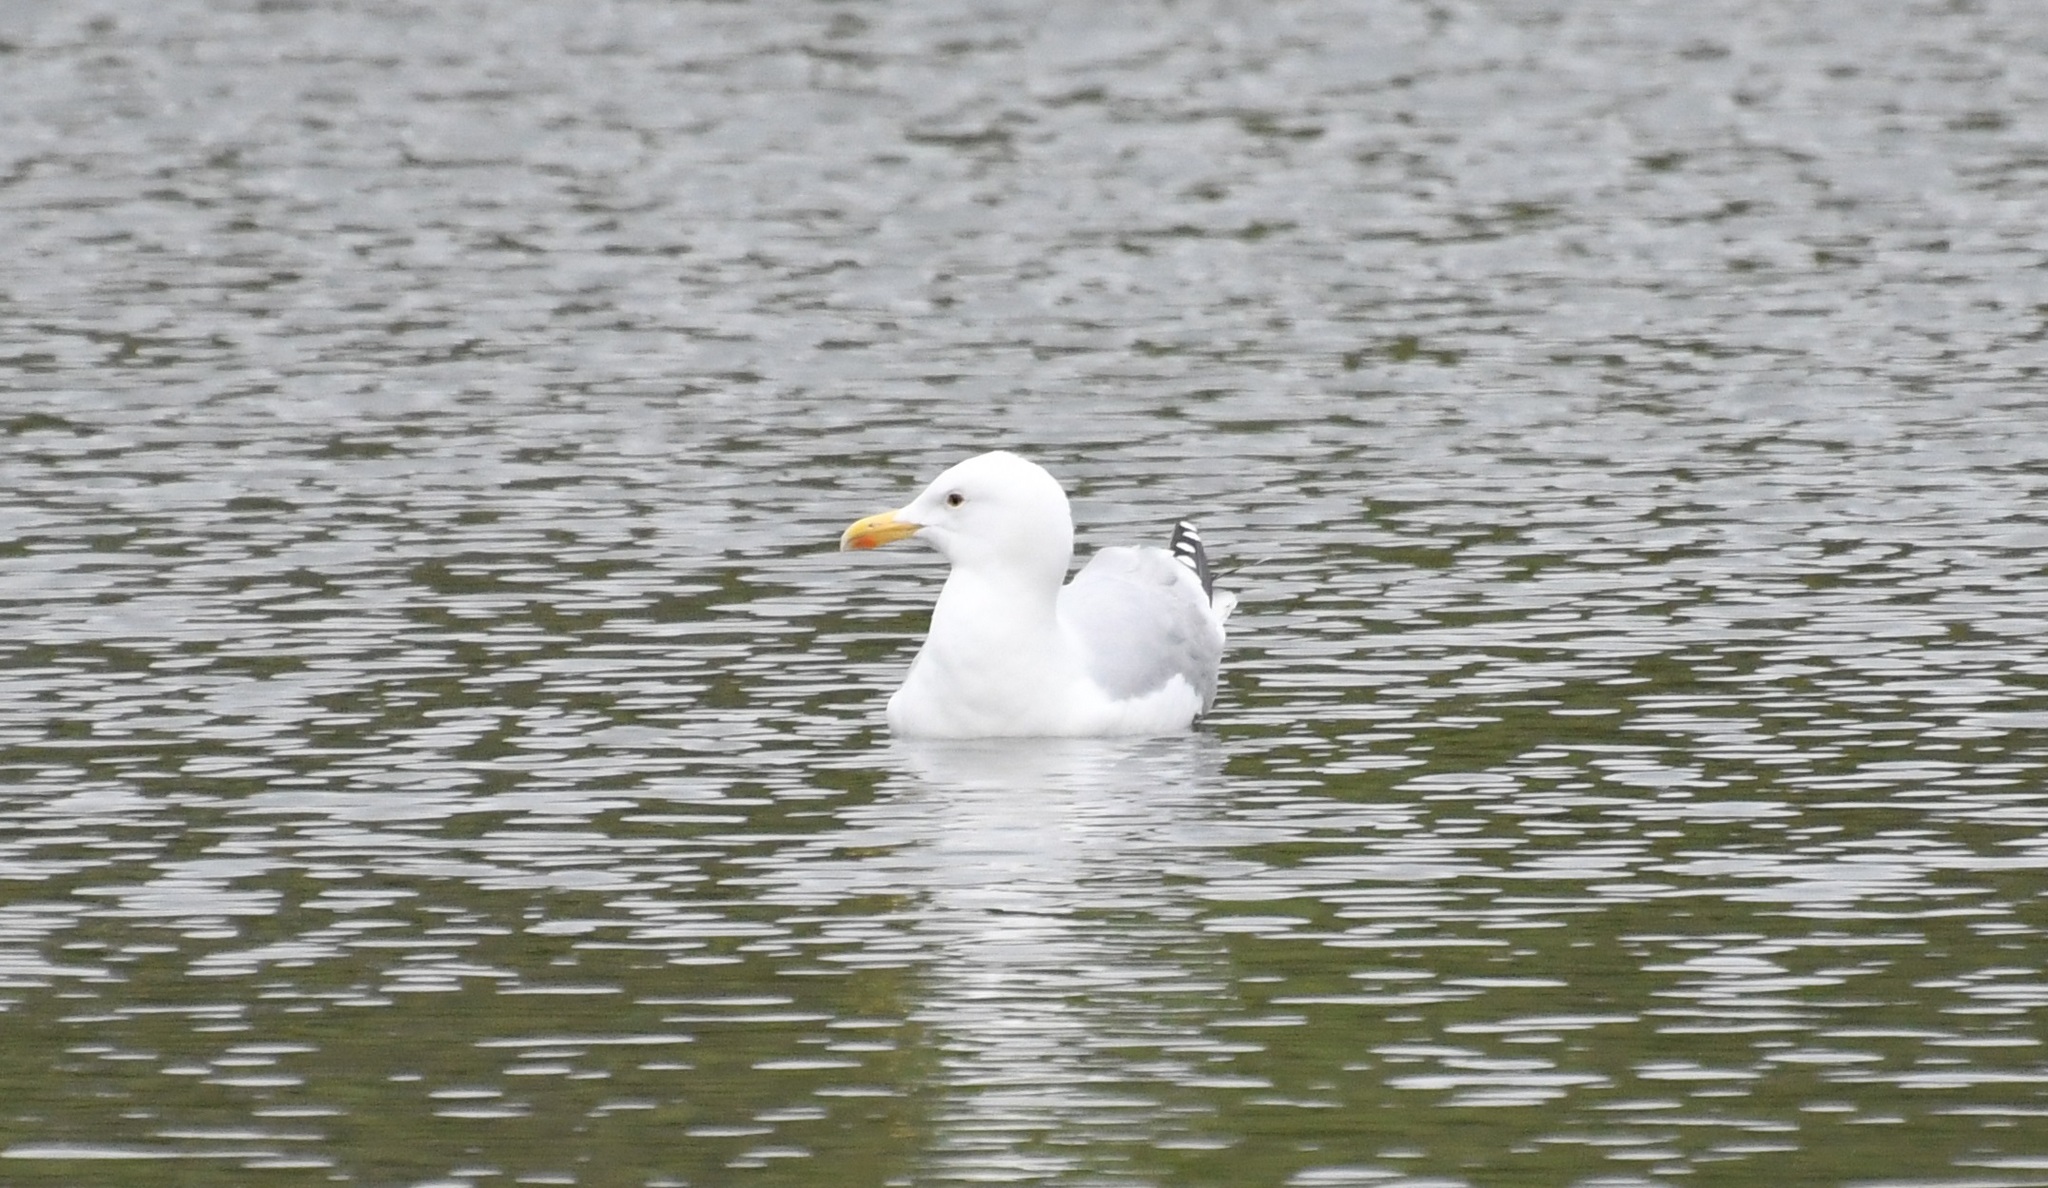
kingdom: Animalia
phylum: Chordata
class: Aves
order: Charadriiformes
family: Laridae
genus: Larus
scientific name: Larus argentatus
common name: Herring gull
